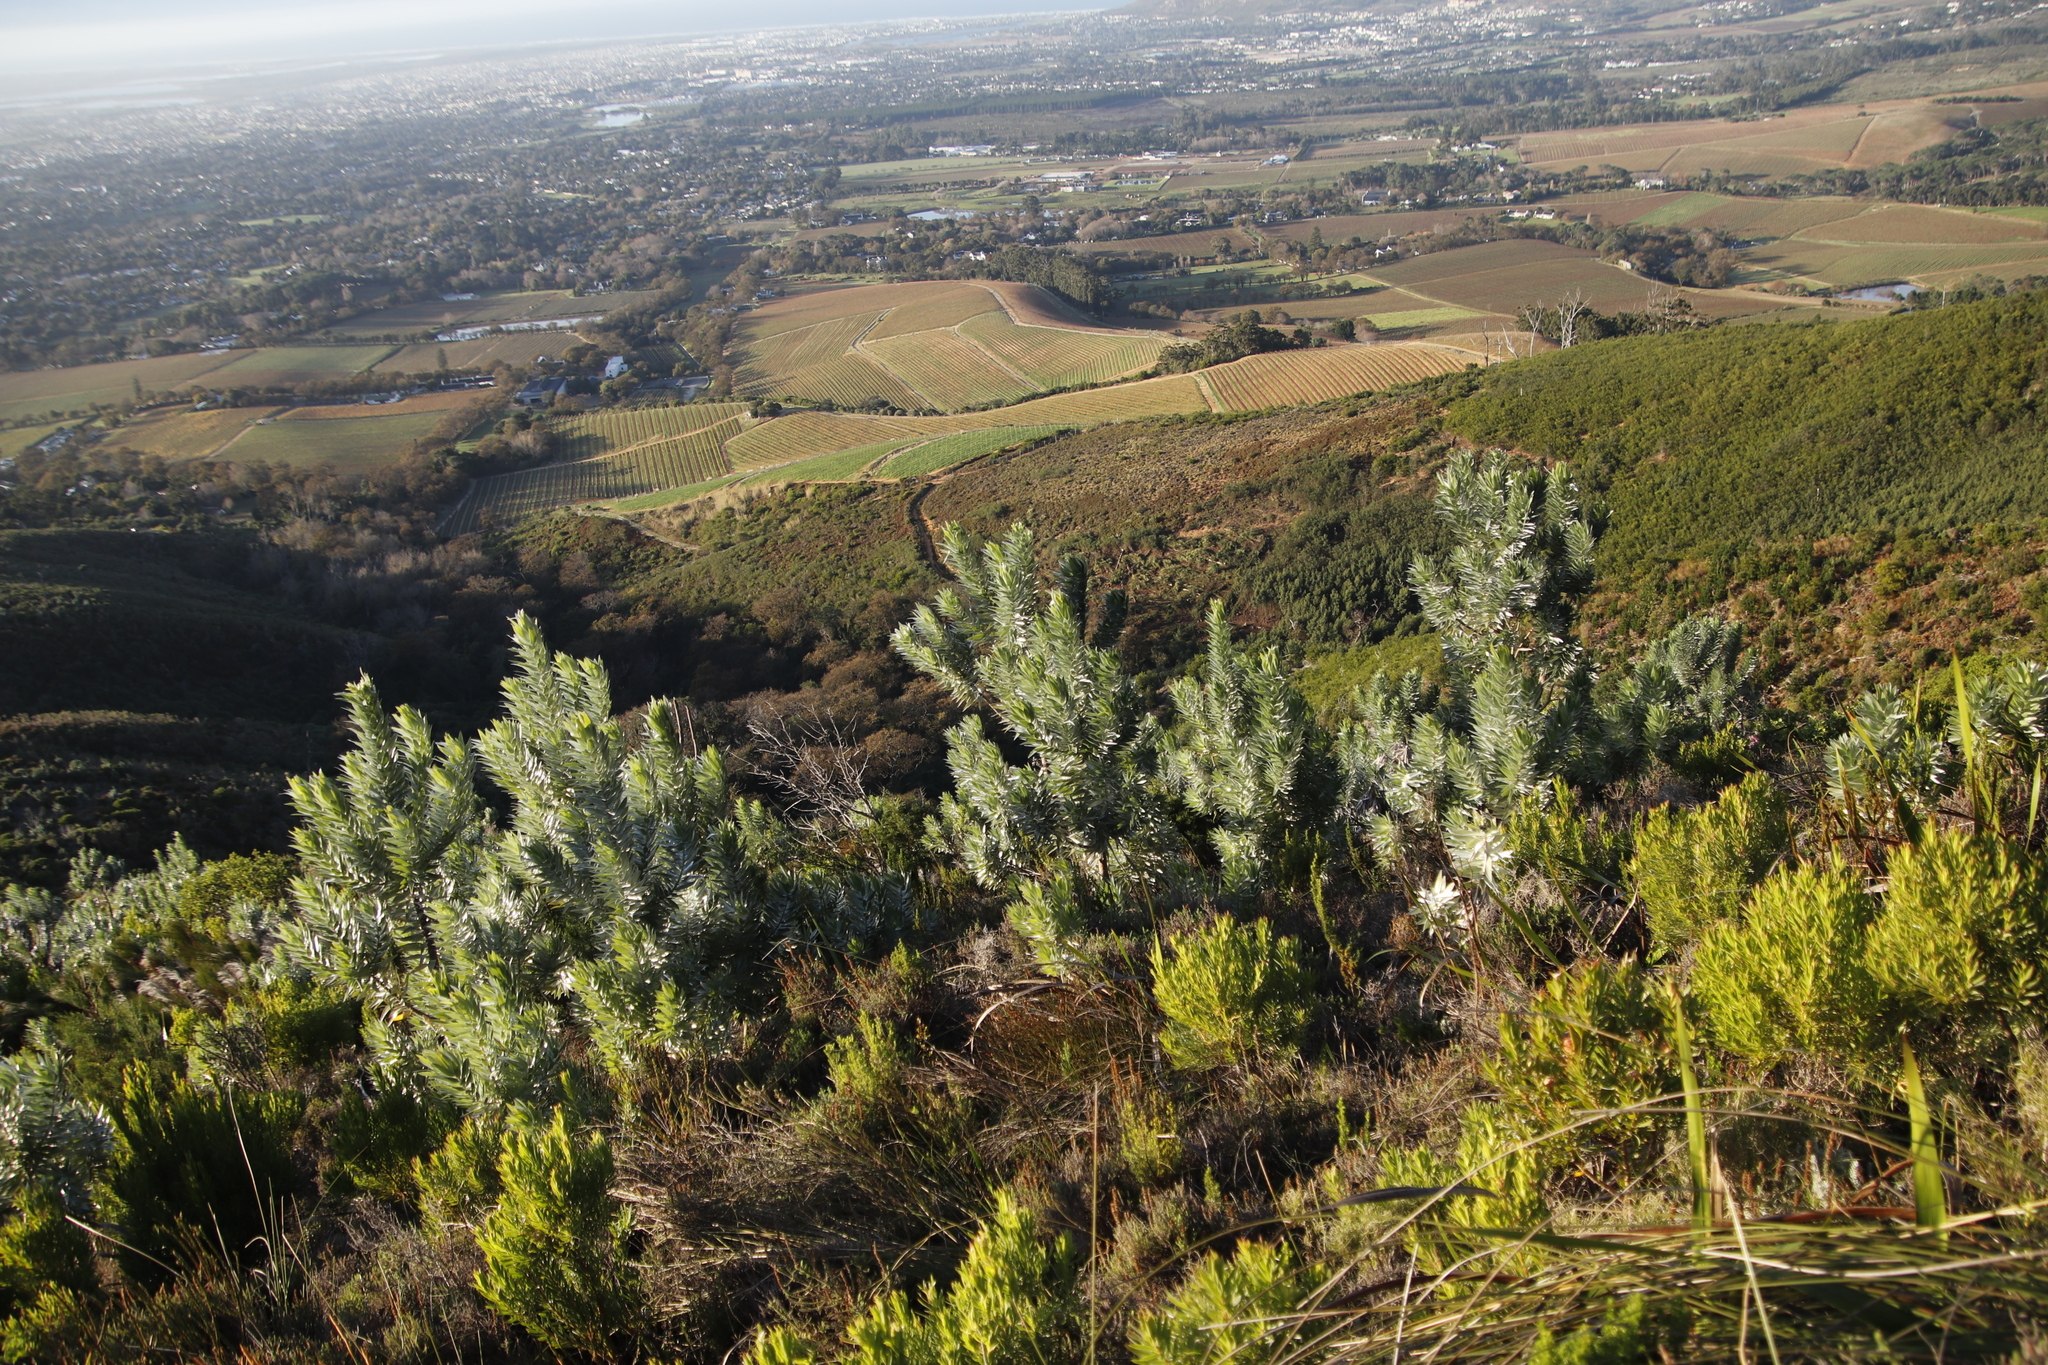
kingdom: Plantae
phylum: Tracheophyta
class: Magnoliopsida
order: Proteales
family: Proteaceae
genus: Leucadendron
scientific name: Leucadendron argenteum
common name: Cape silver tree
